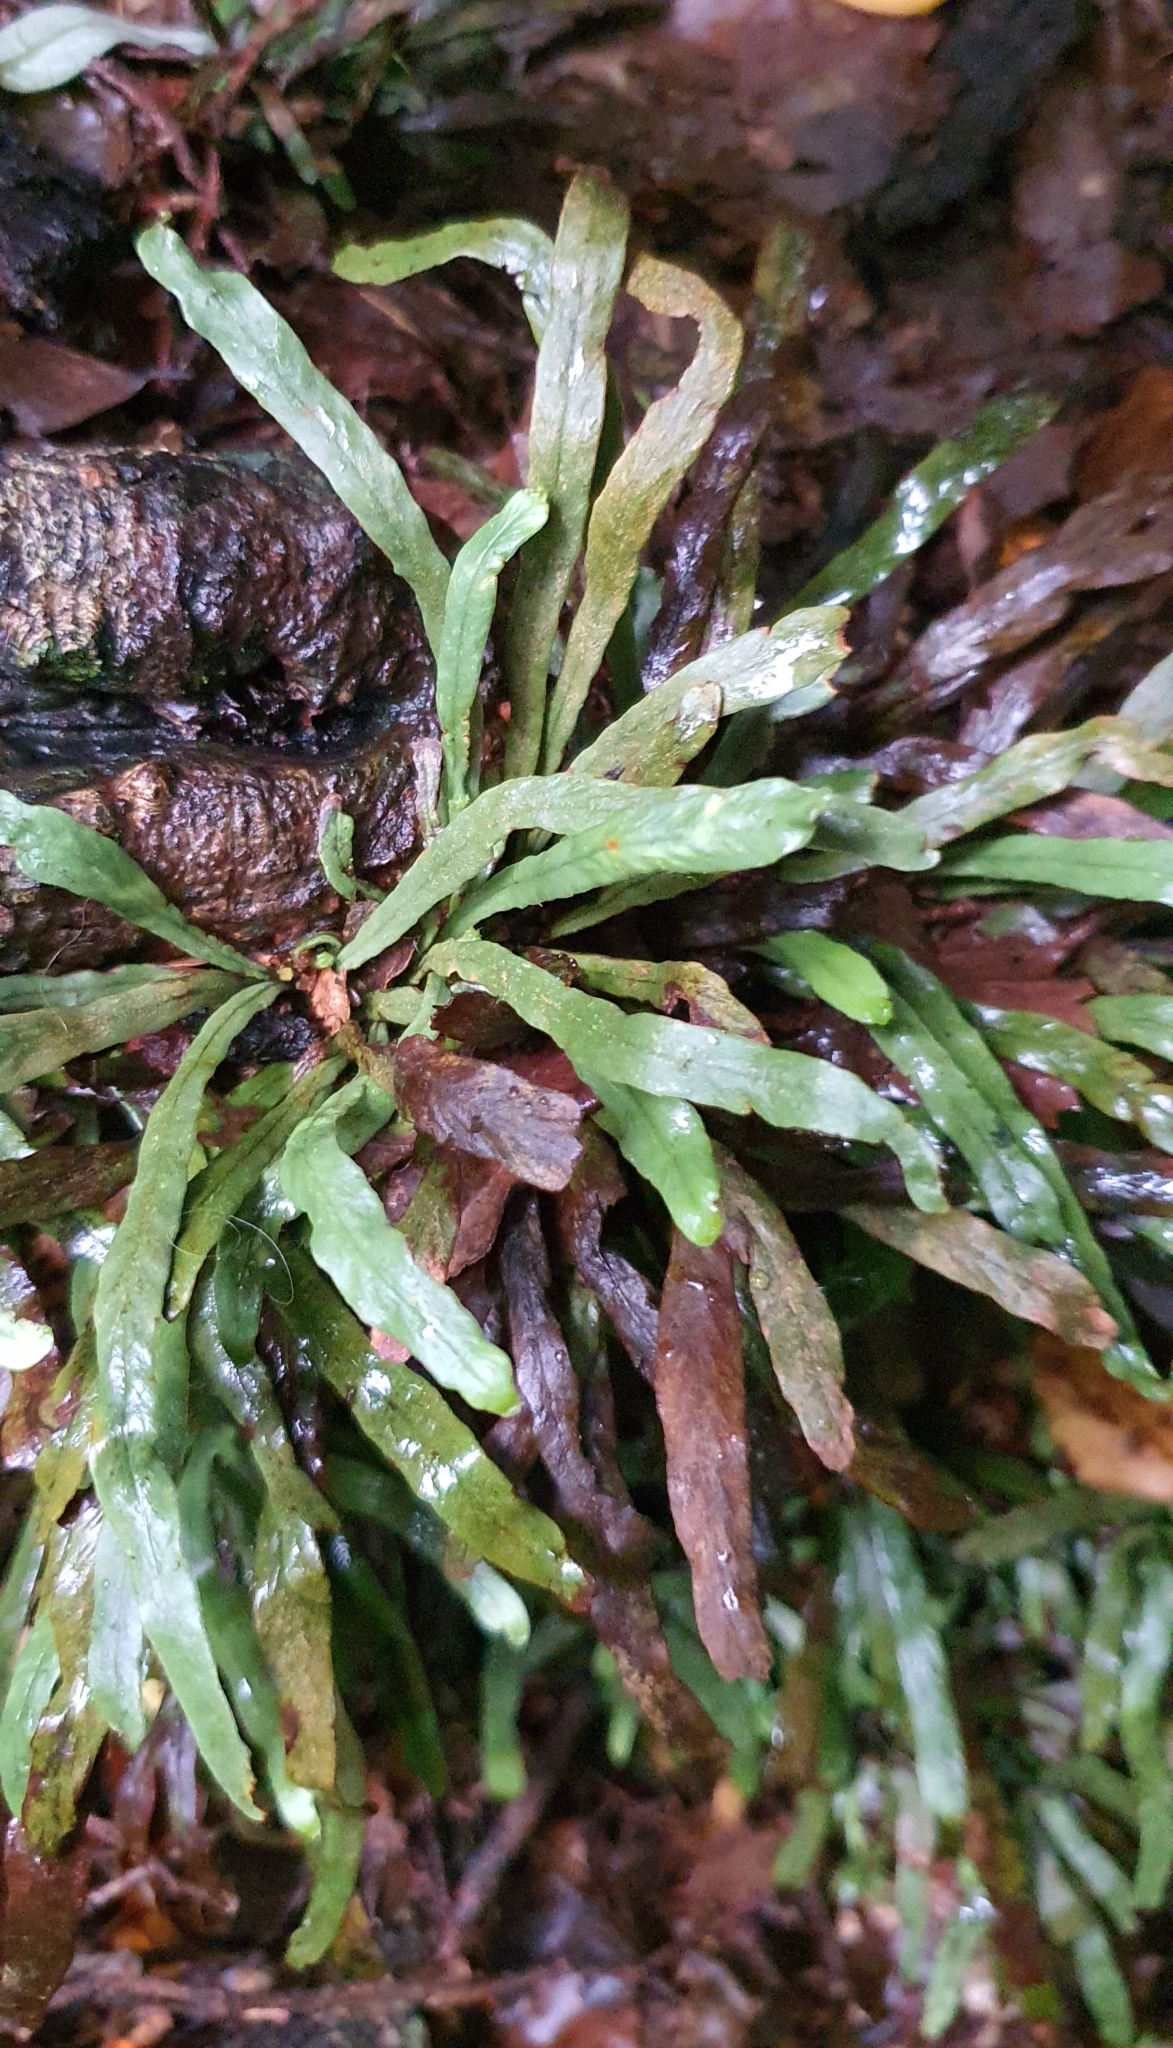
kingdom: Plantae
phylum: Tracheophyta
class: Polypodiopsida
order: Polypodiales
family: Polypodiaceae
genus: Notogrammitis
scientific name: Notogrammitis billardierei
